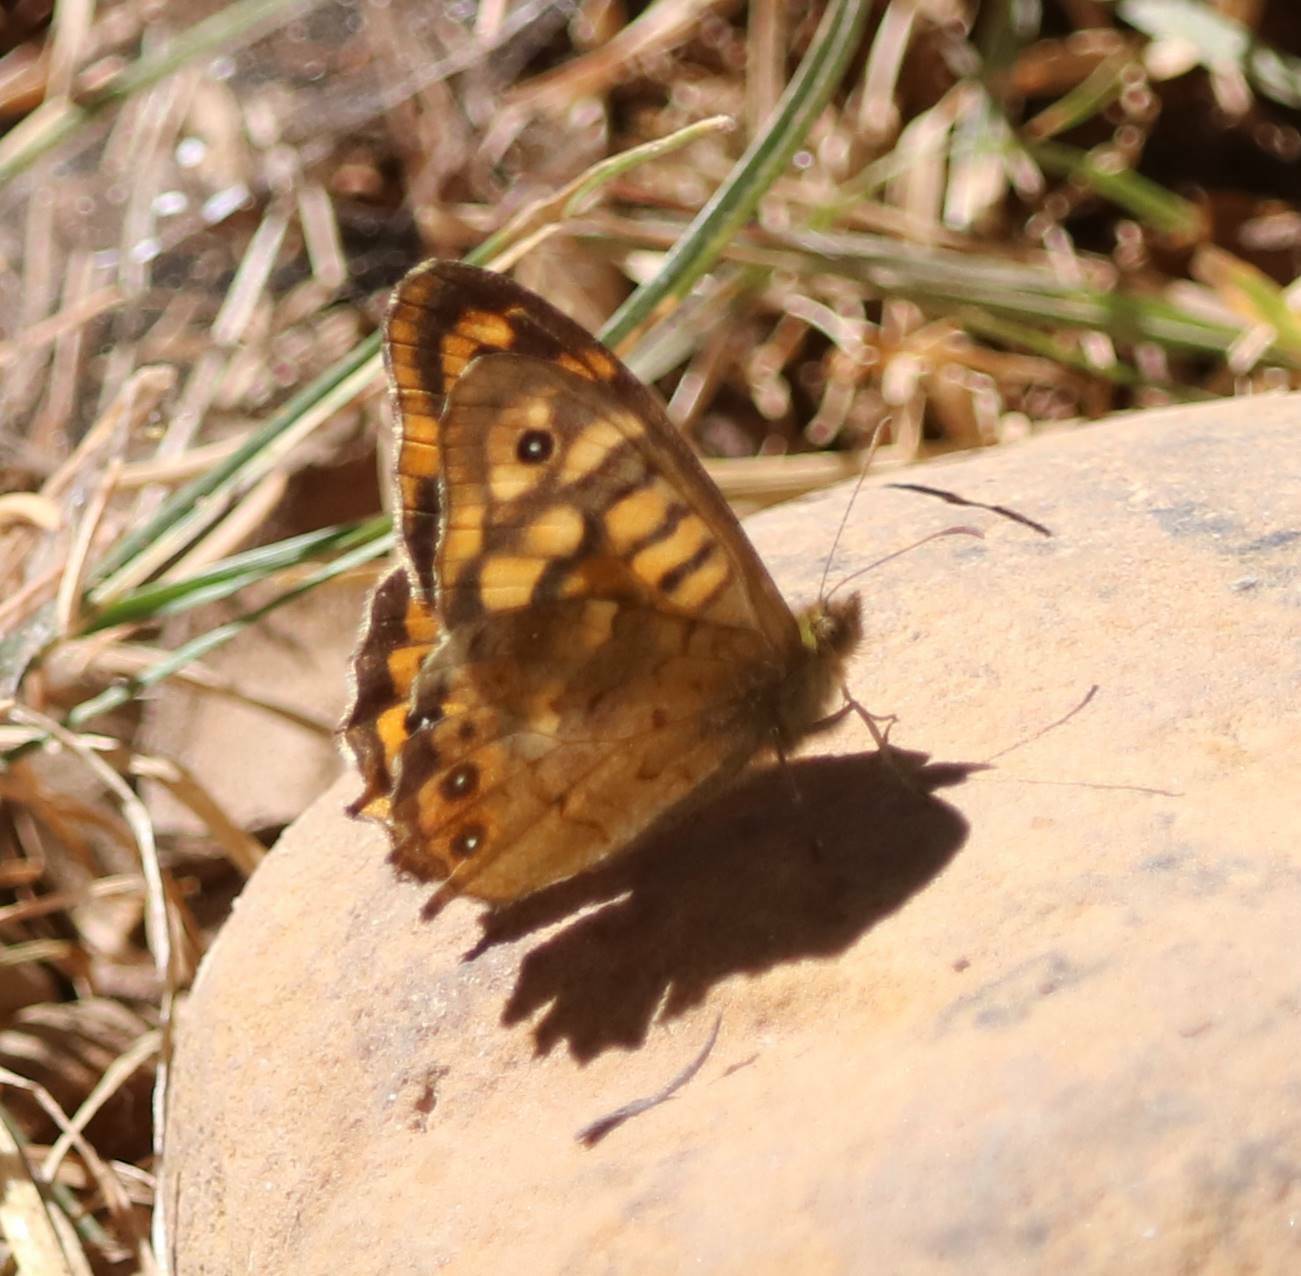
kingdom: Animalia
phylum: Arthropoda
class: Insecta
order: Lepidoptera
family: Nymphalidae
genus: Pararge
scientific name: Pararge aegeria
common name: Speckled wood
